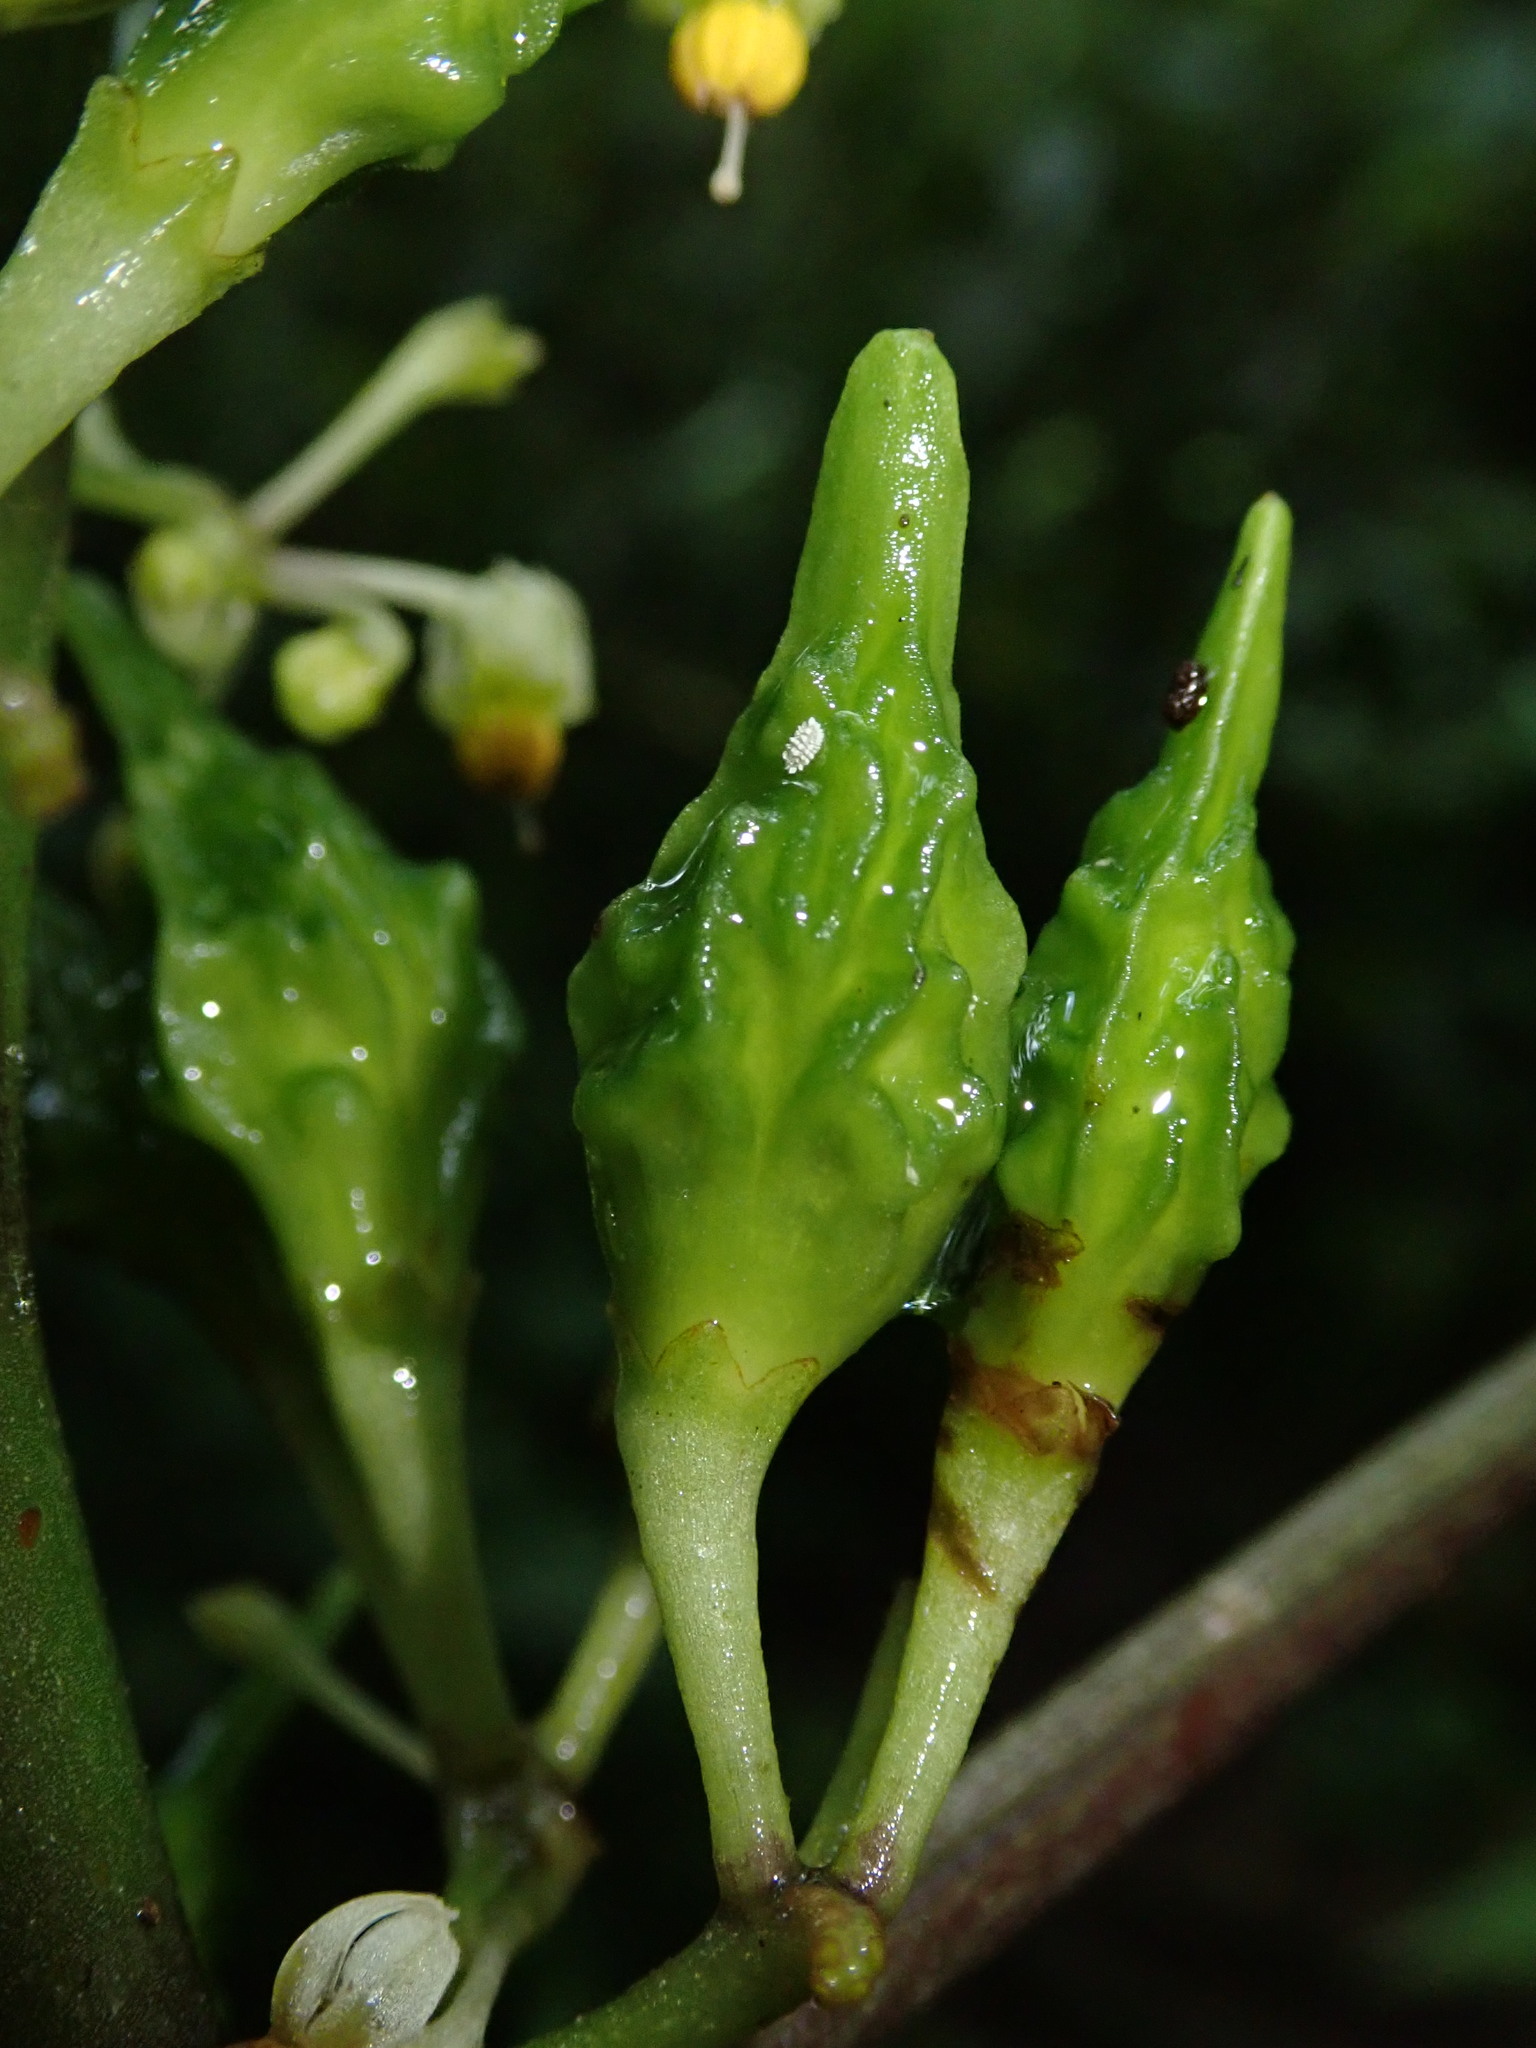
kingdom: Plantae
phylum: Tracheophyta
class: Magnoliopsida
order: Solanales
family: Solanaceae
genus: Solanum
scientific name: Solanum anceps
